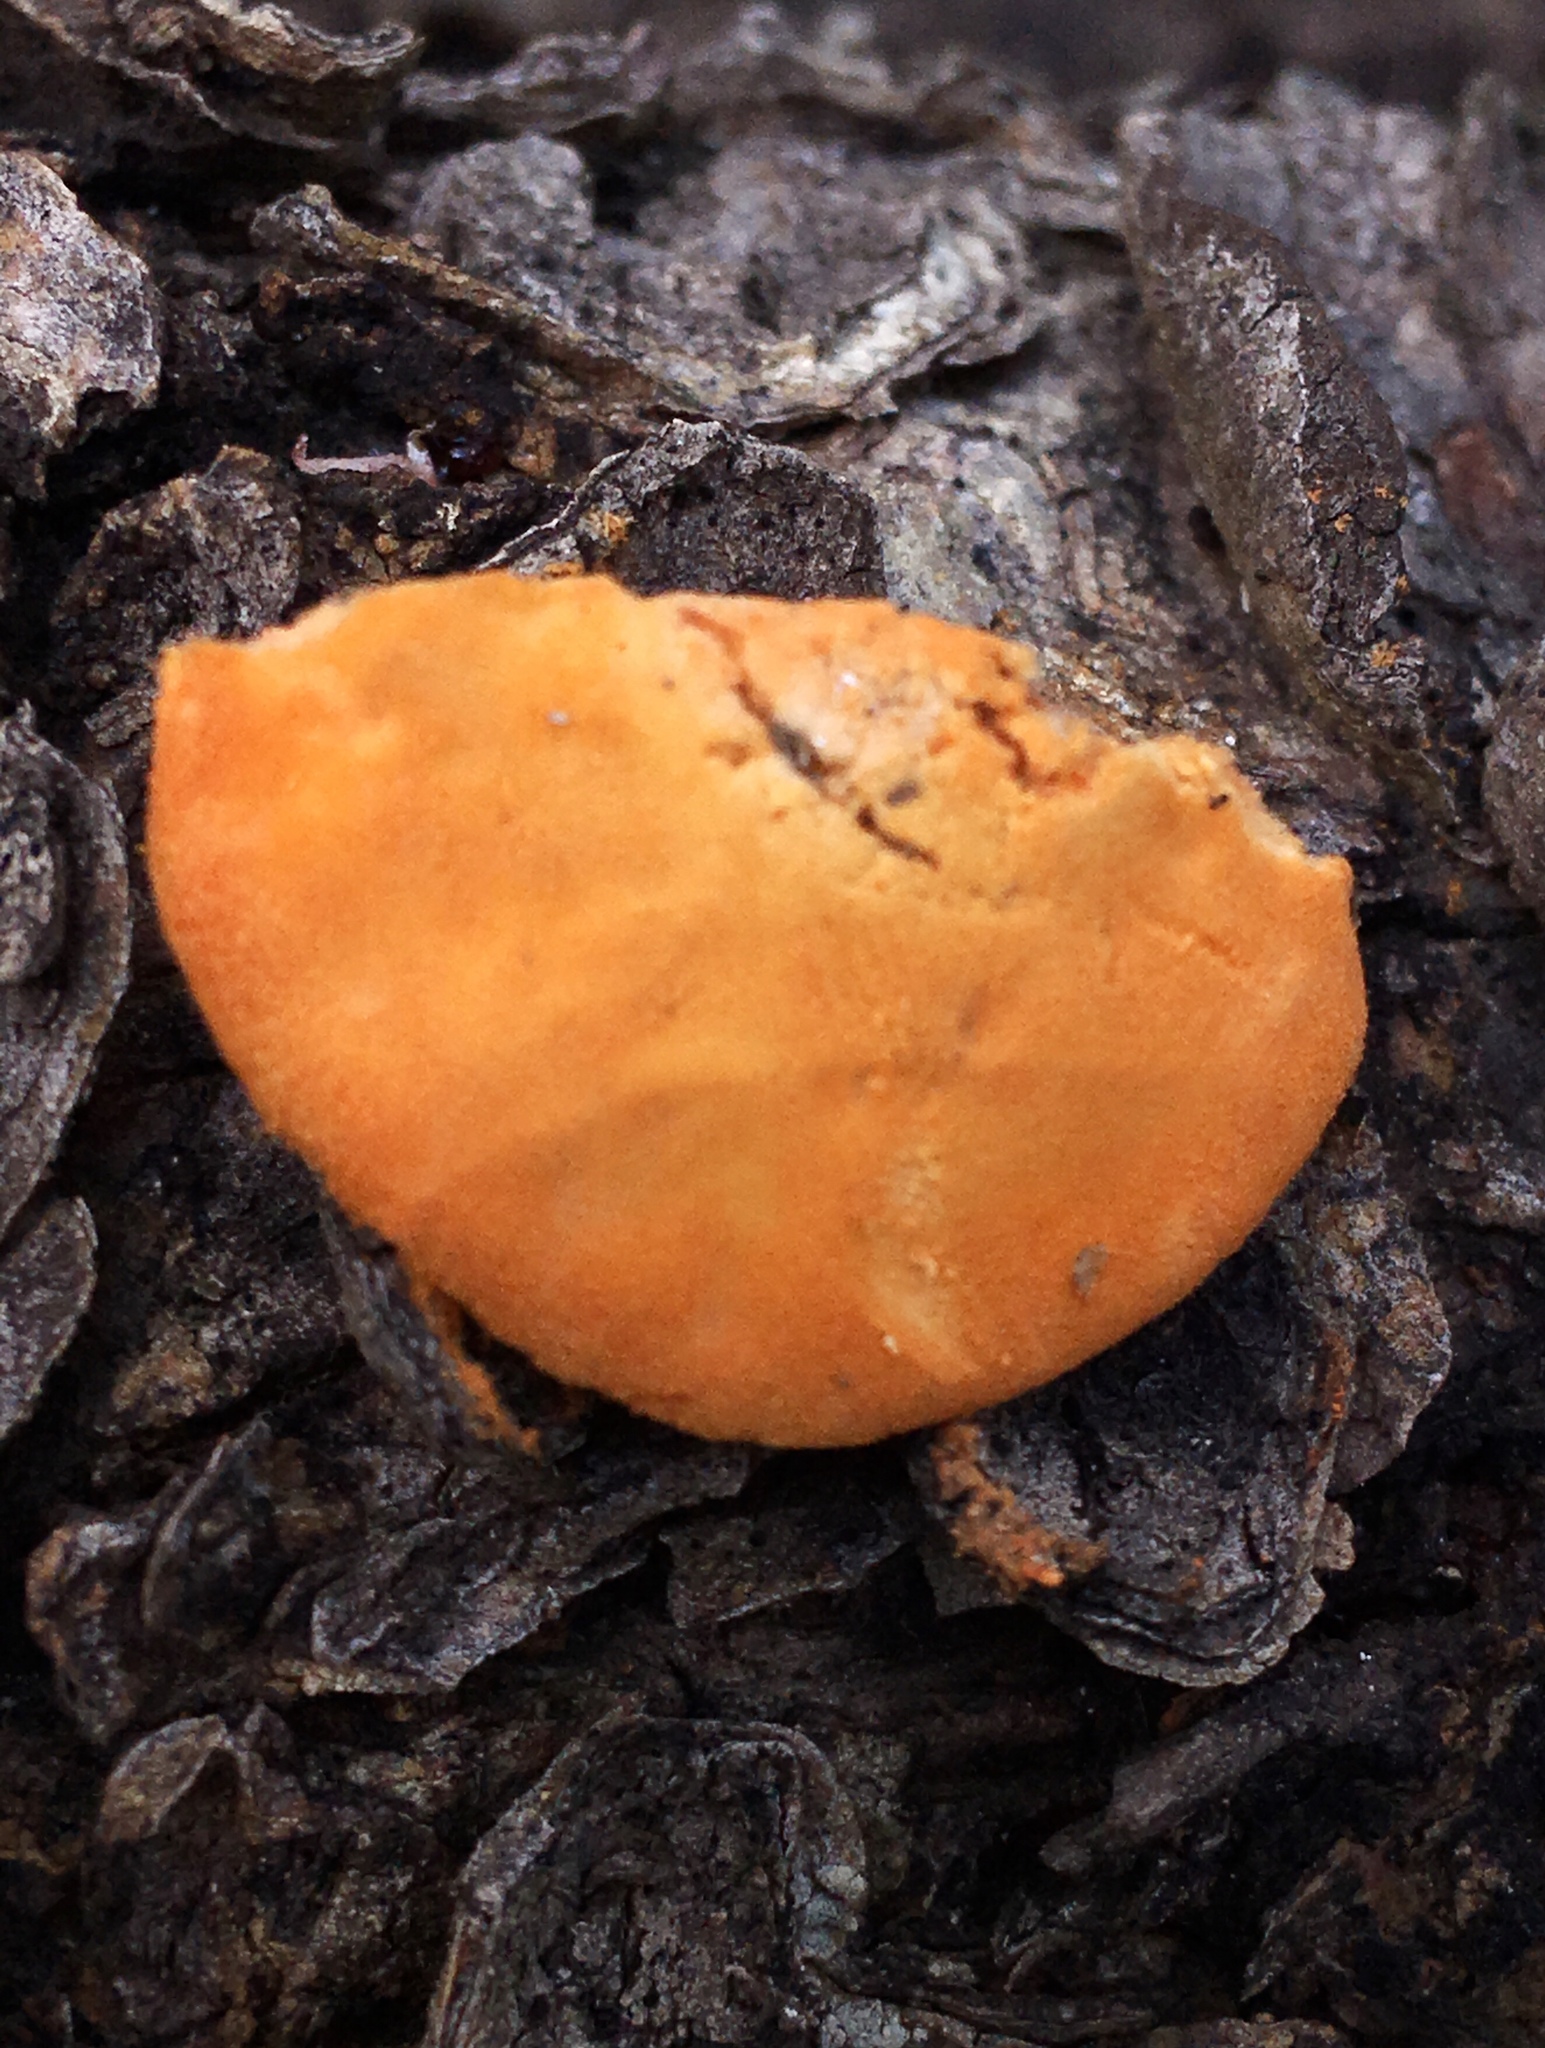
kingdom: Fungi
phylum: Basidiomycota
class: Agaricomycetes
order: Polyporales
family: Polyporaceae
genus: Trametes
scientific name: Trametes cinnabarina
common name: Northern cinnabar polypore
